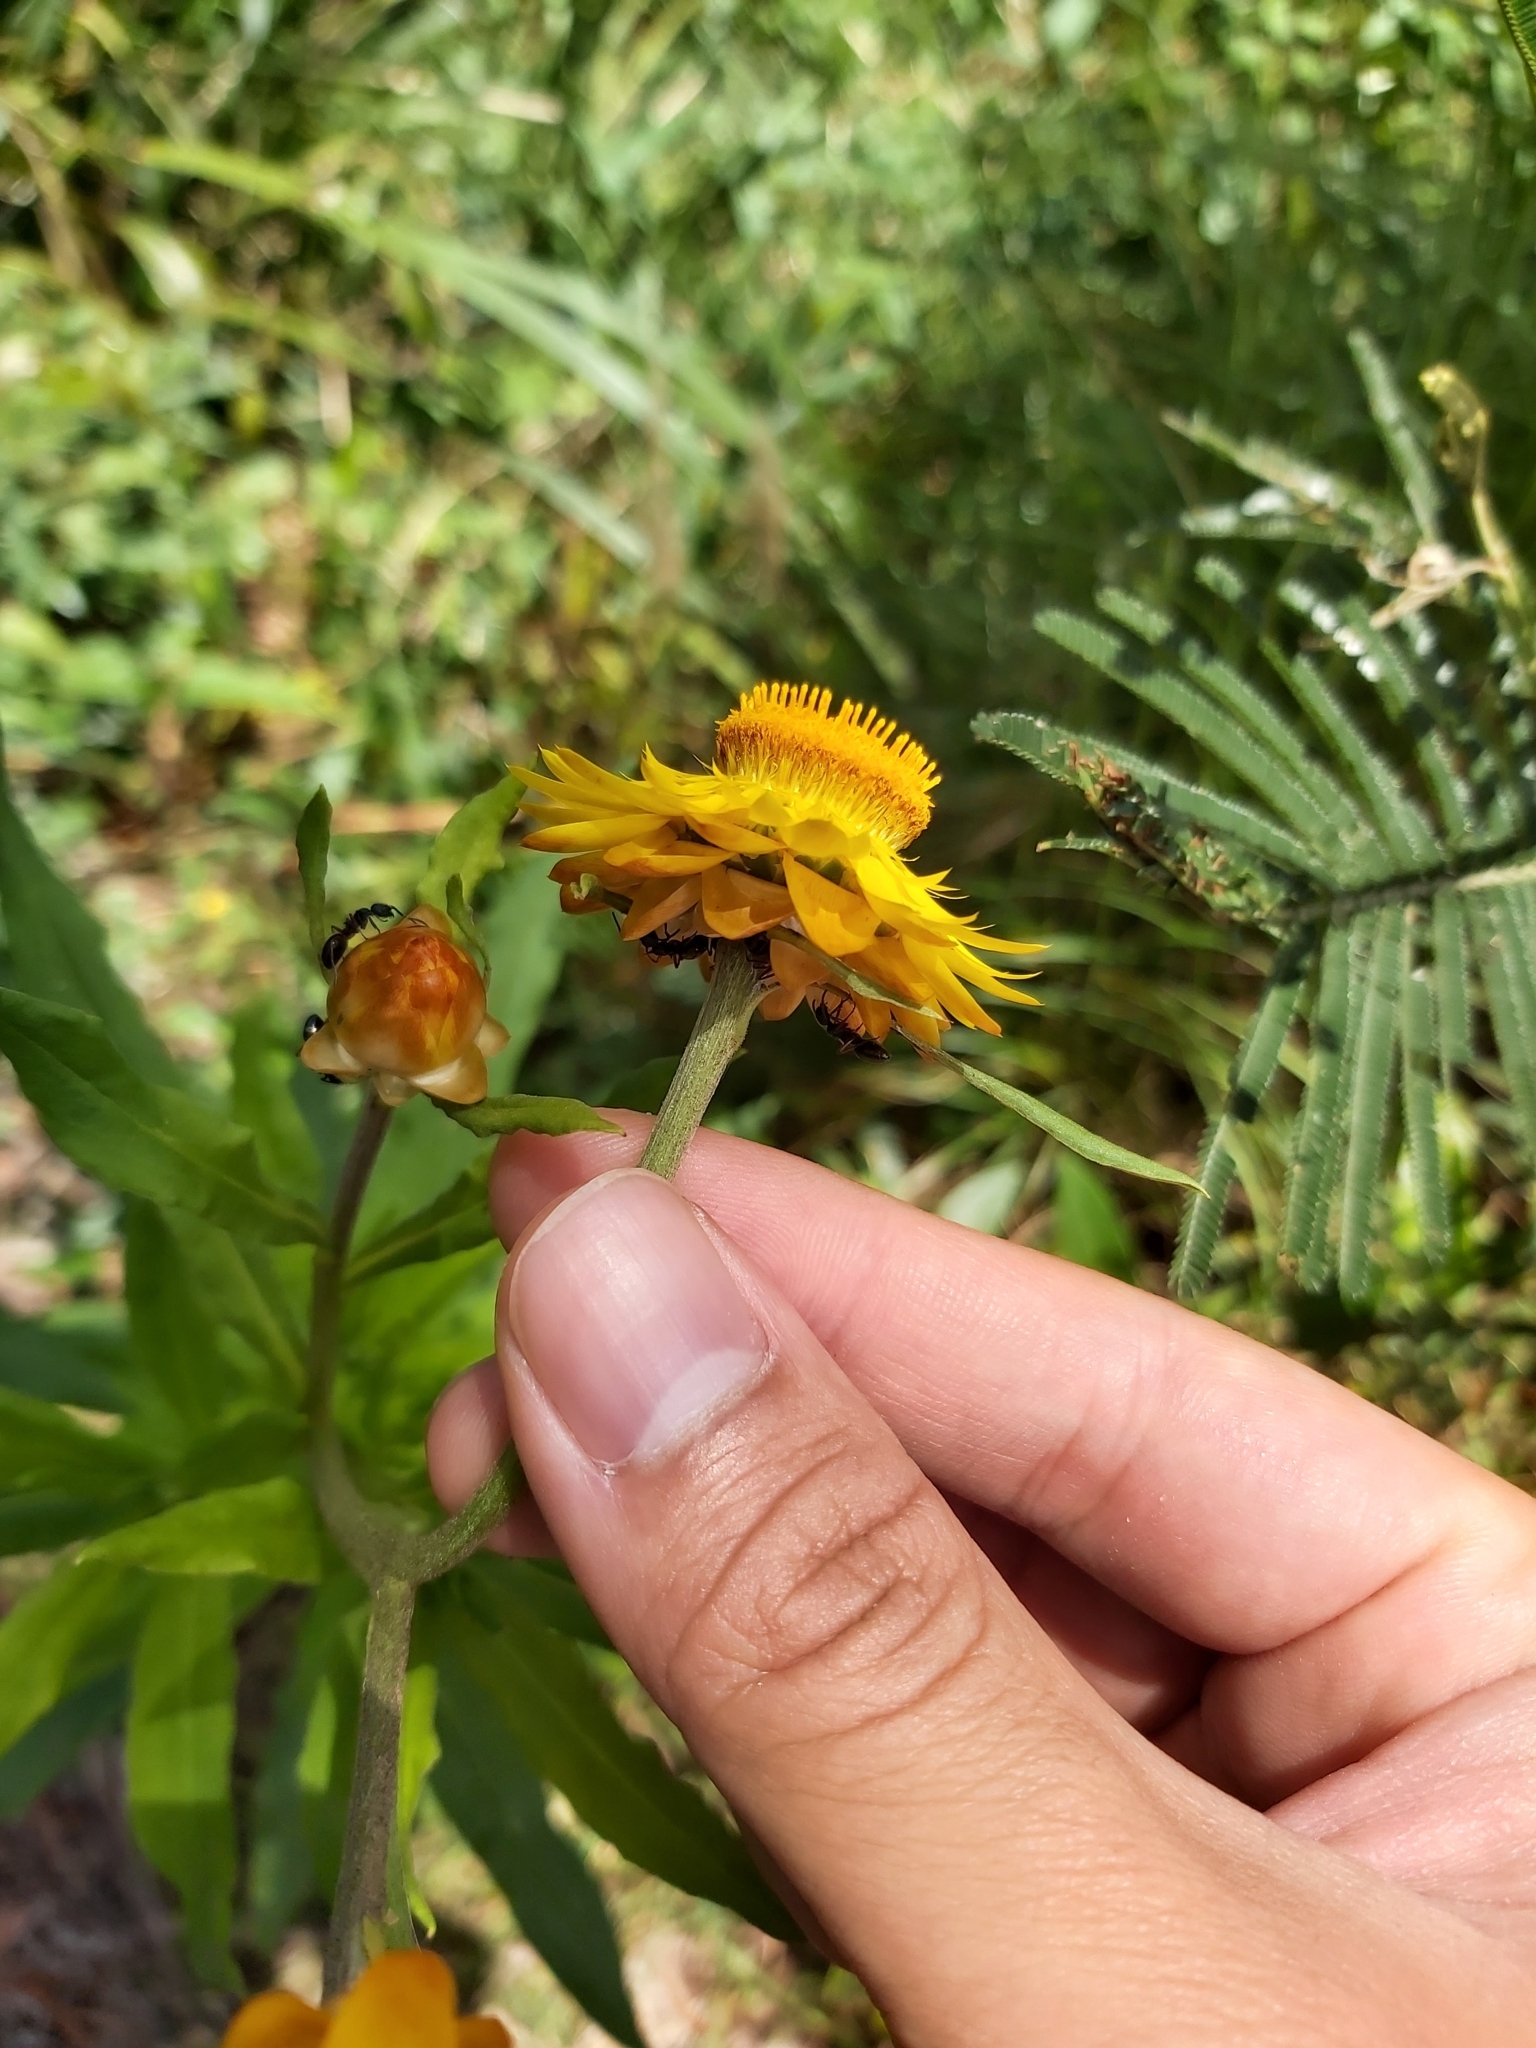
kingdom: Plantae
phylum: Tracheophyta
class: Magnoliopsida
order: Asterales
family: Asteraceae
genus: Xerochrysum
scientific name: Xerochrysum bracteatum
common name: Bracted strawflower
